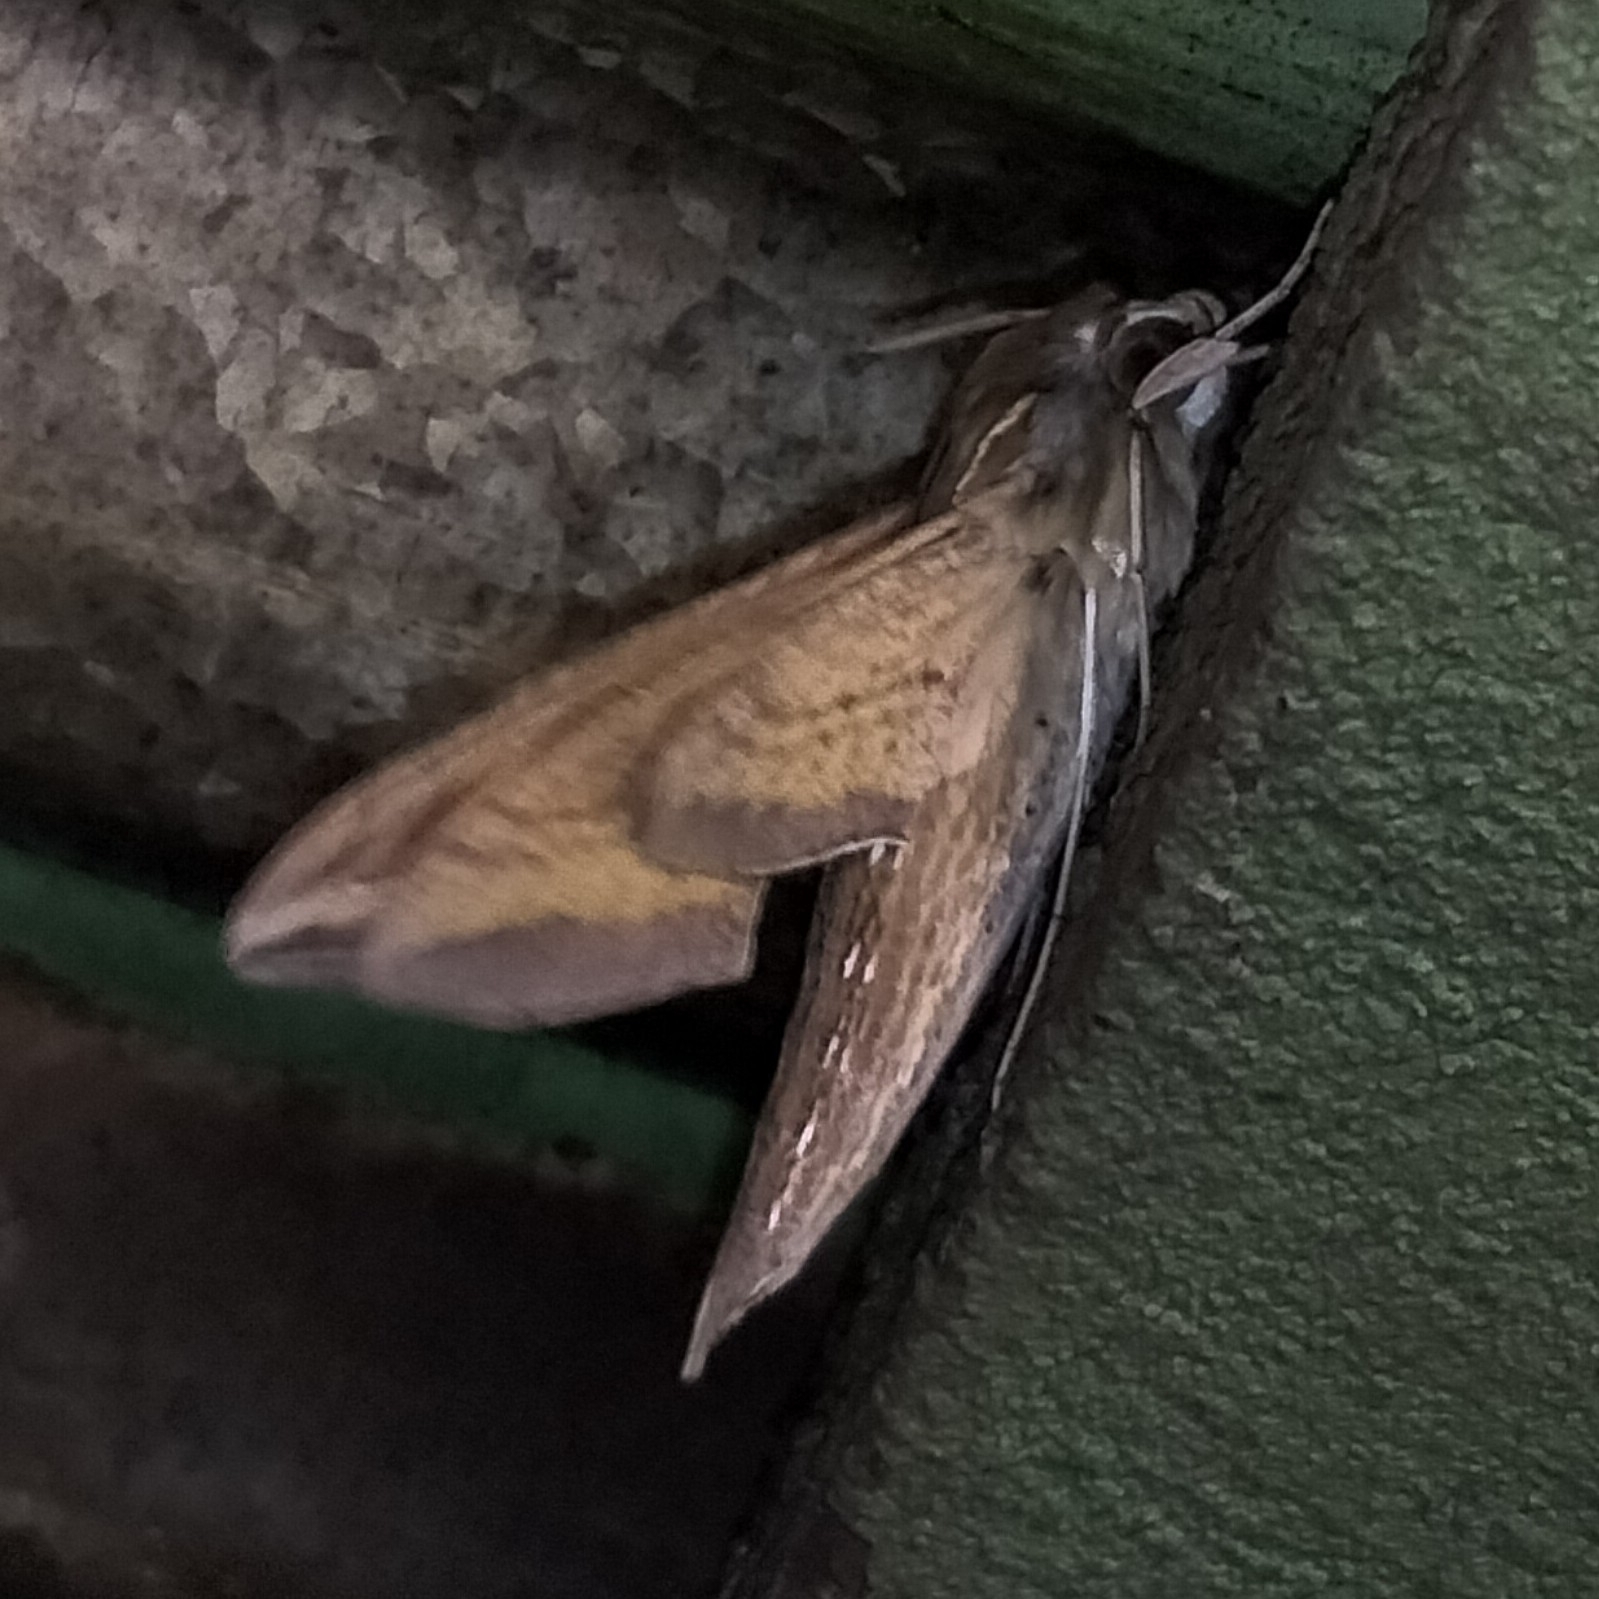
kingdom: Animalia
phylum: Arthropoda
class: Insecta
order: Lepidoptera
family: Sphingidae
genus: Hippotion
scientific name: Hippotion celerio
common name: Silver-striped hawk-moth
